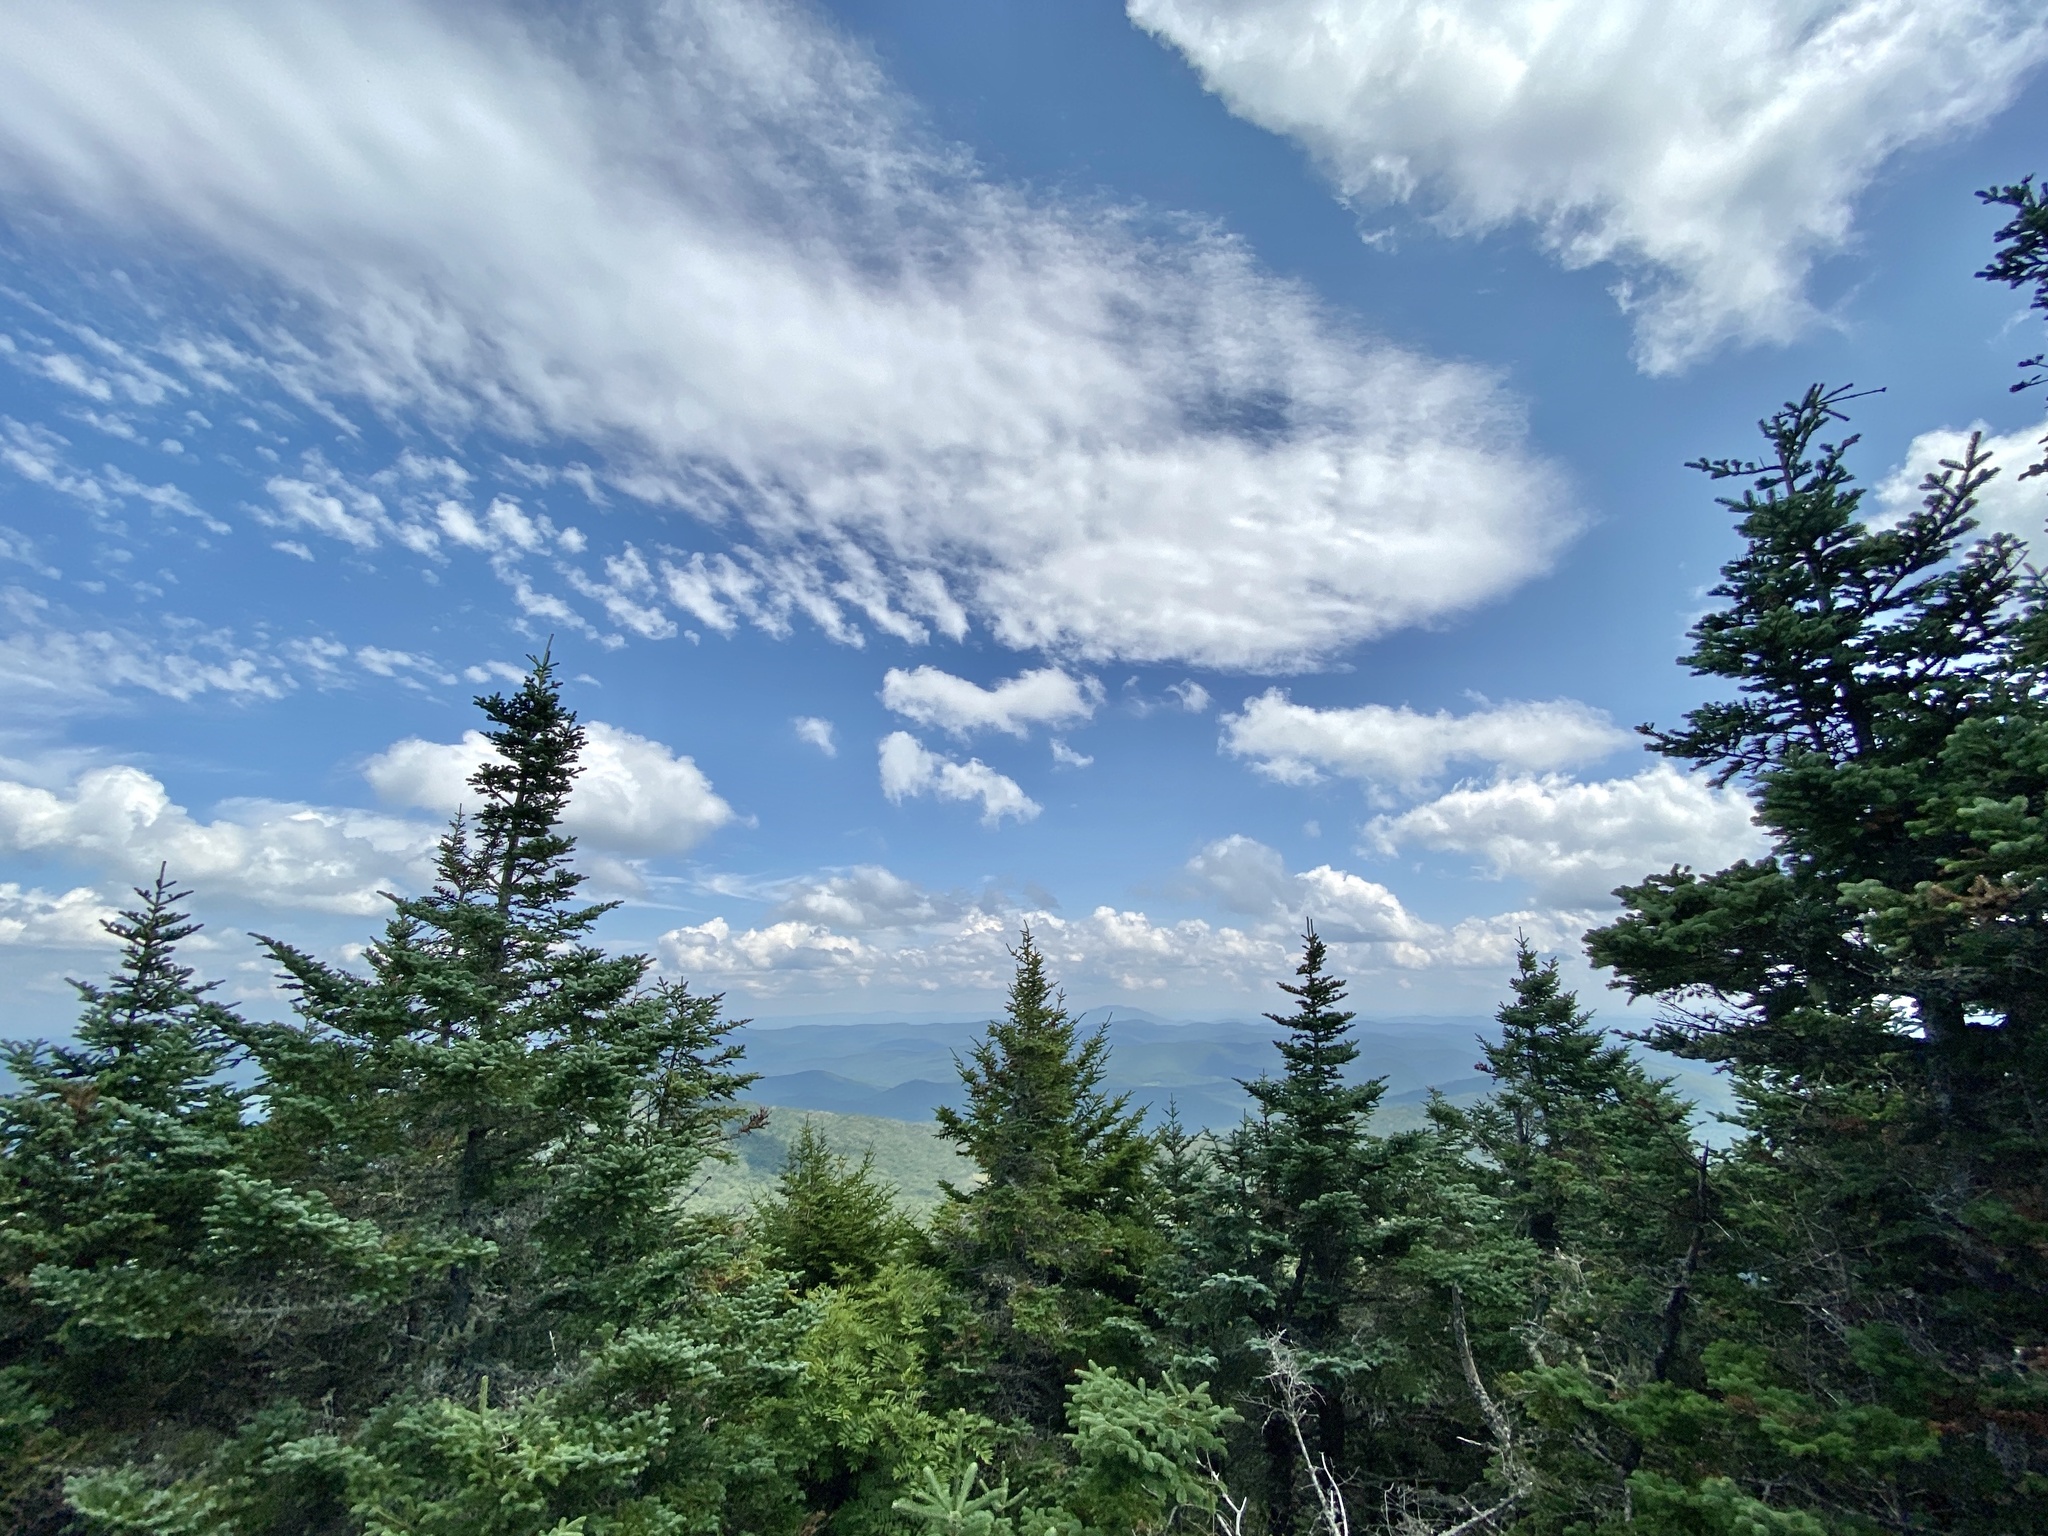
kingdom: Plantae
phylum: Tracheophyta
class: Pinopsida
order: Pinales
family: Pinaceae
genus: Abies
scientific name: Abies balsamea
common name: Balsam fir
